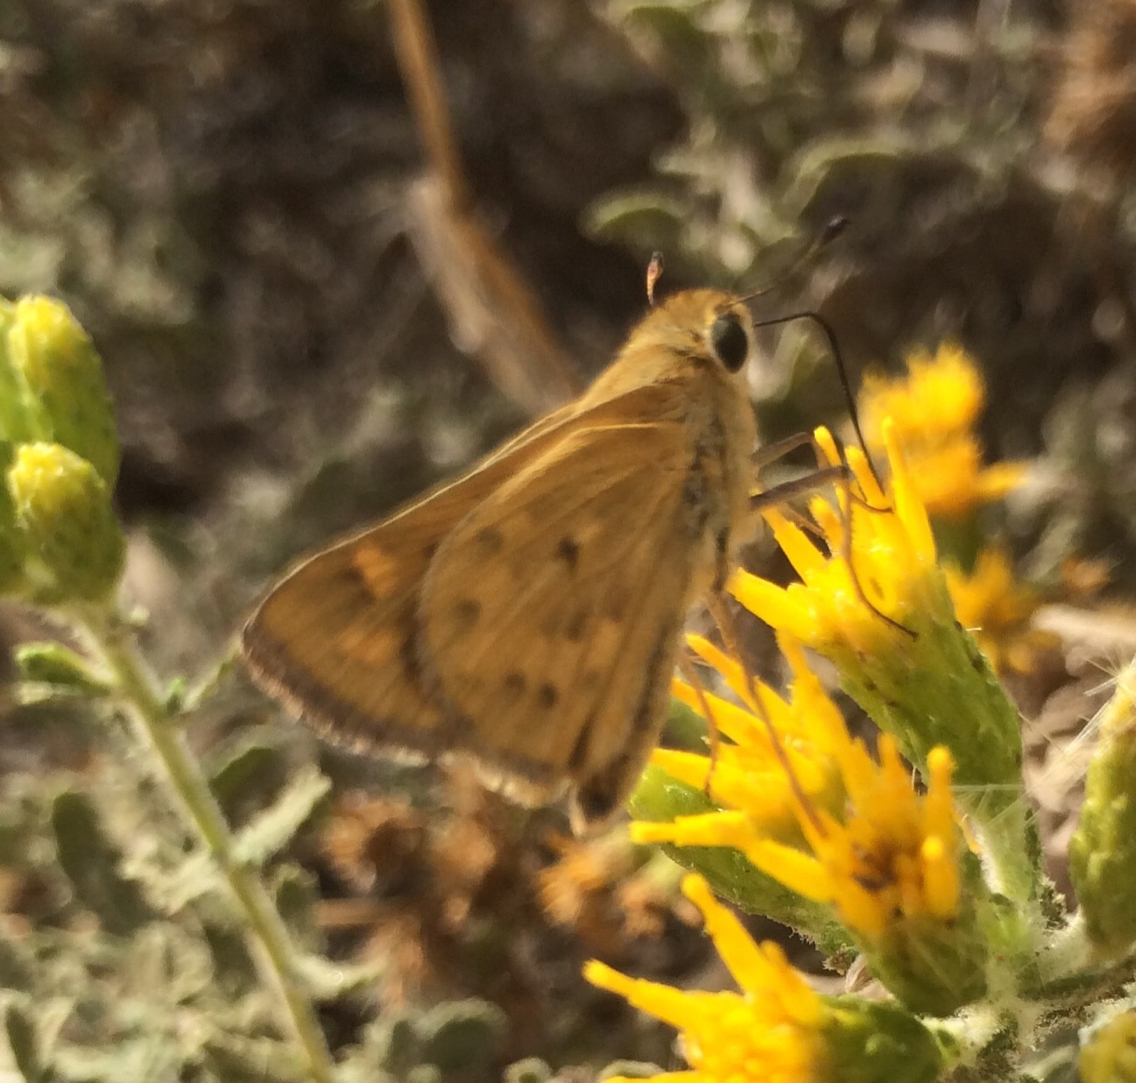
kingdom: Animalia
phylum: Arthropoda
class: Insecta
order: Lepidoptera
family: Hesperiidae
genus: Hylephila
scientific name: Hylephila phyleus
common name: Fiery skipper
